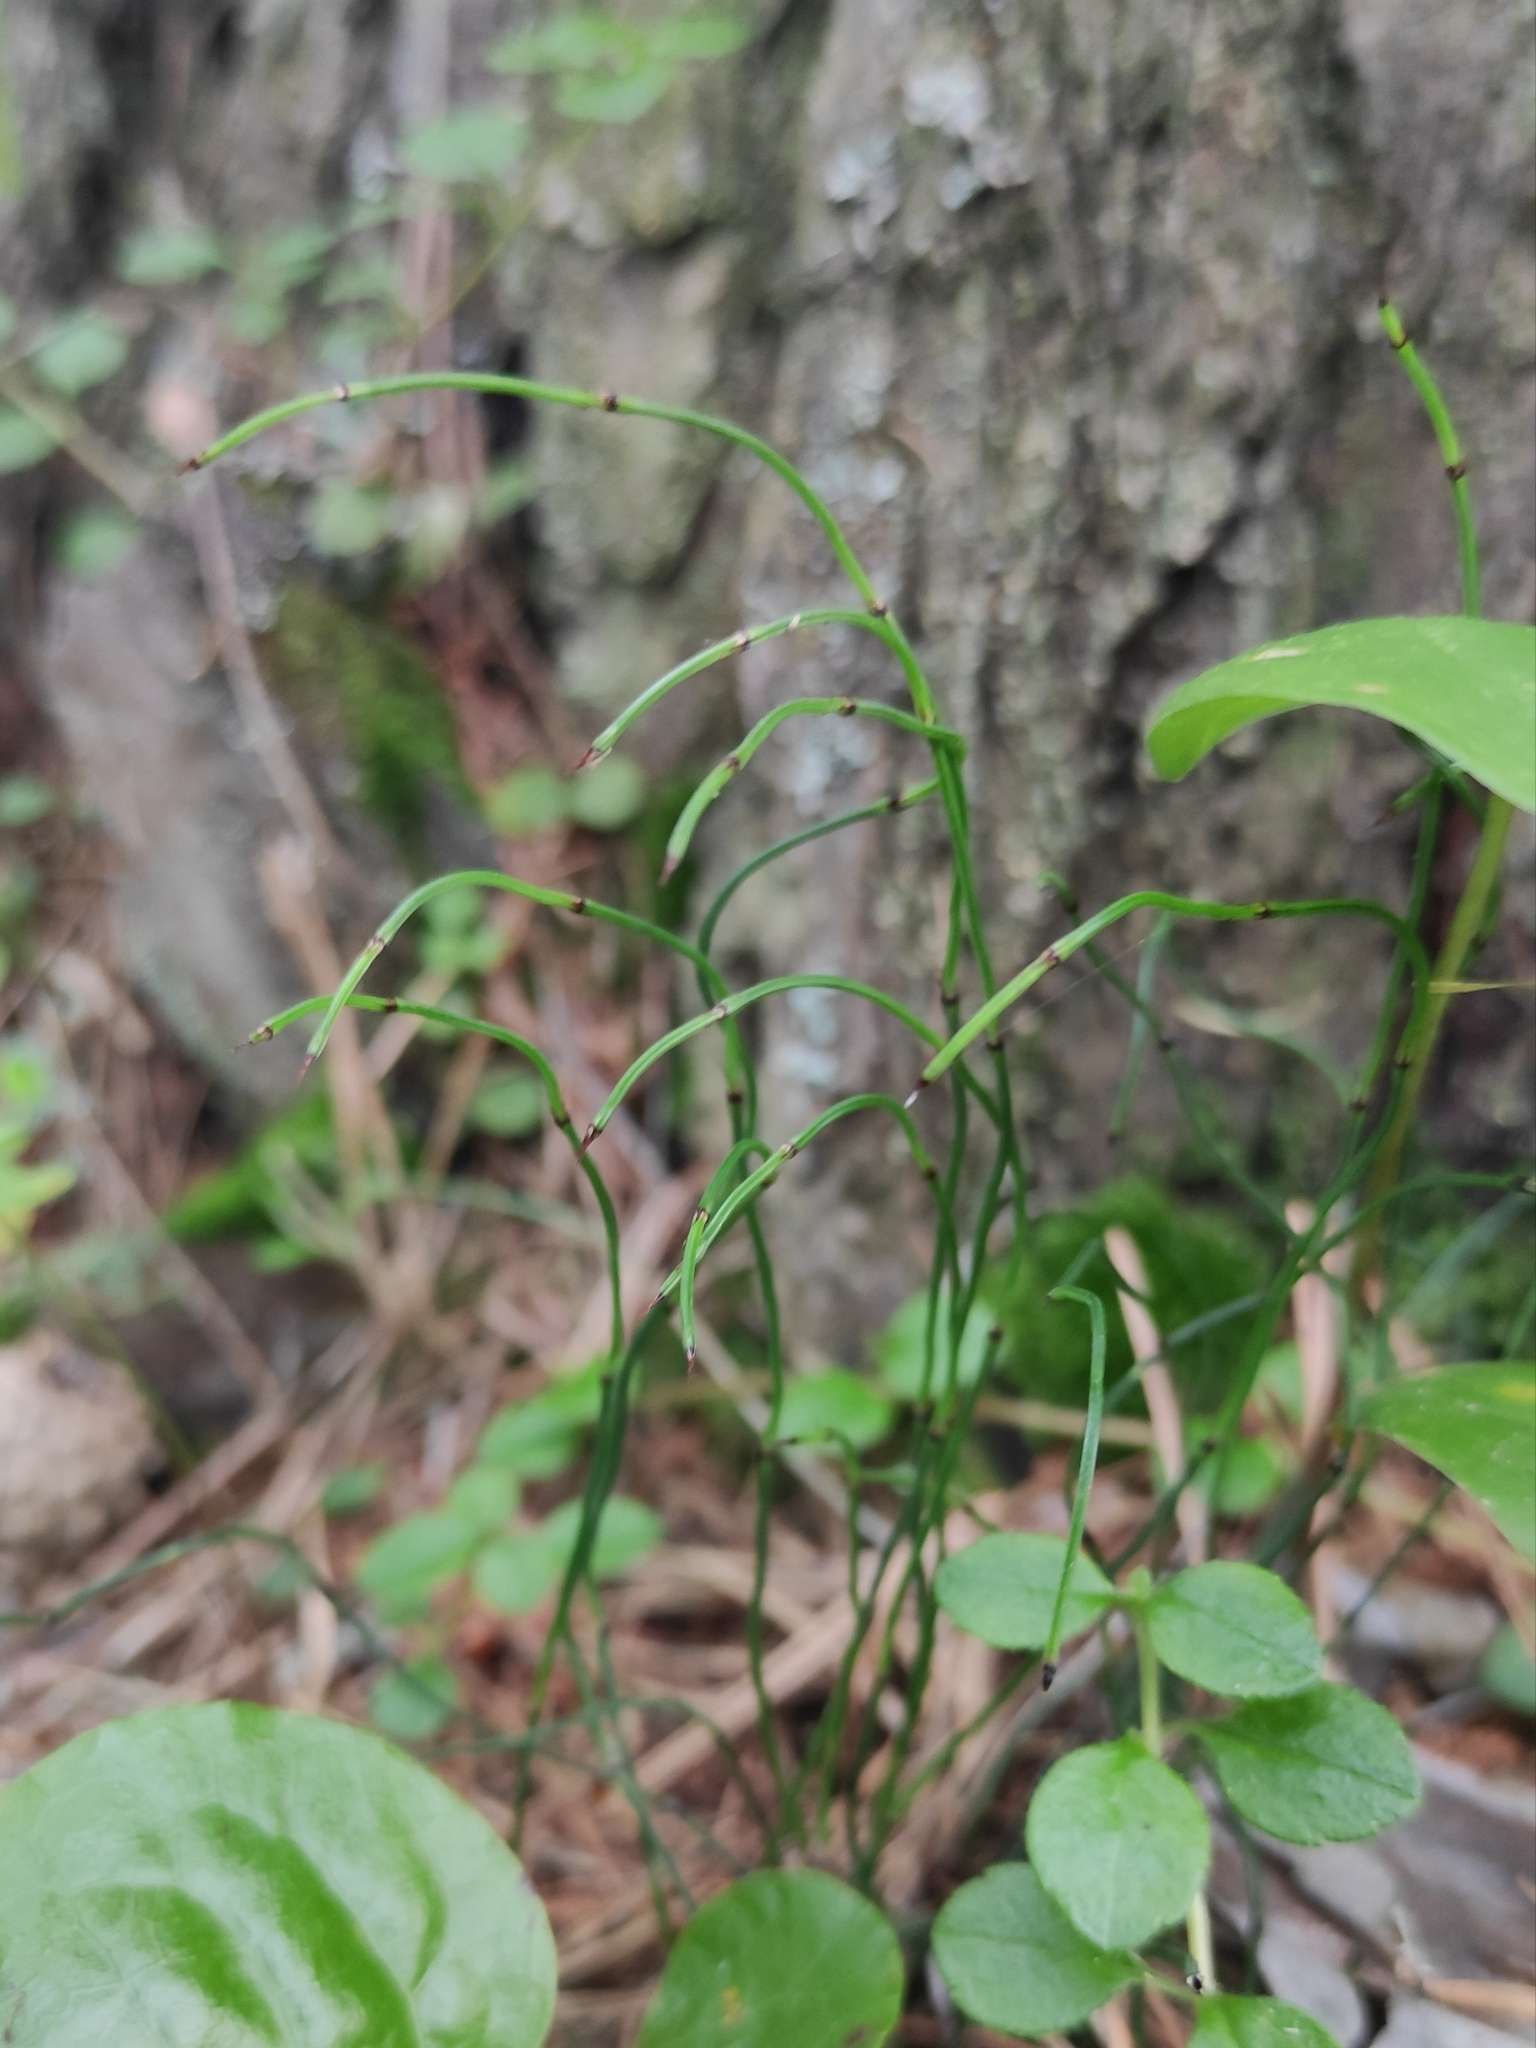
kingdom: Plantae
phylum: Tracheophyta
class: Polypodiopsida
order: Equisetales
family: Equisetaceae
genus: Equisetum
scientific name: Equisetum scirpoides
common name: Delicate horsetail
